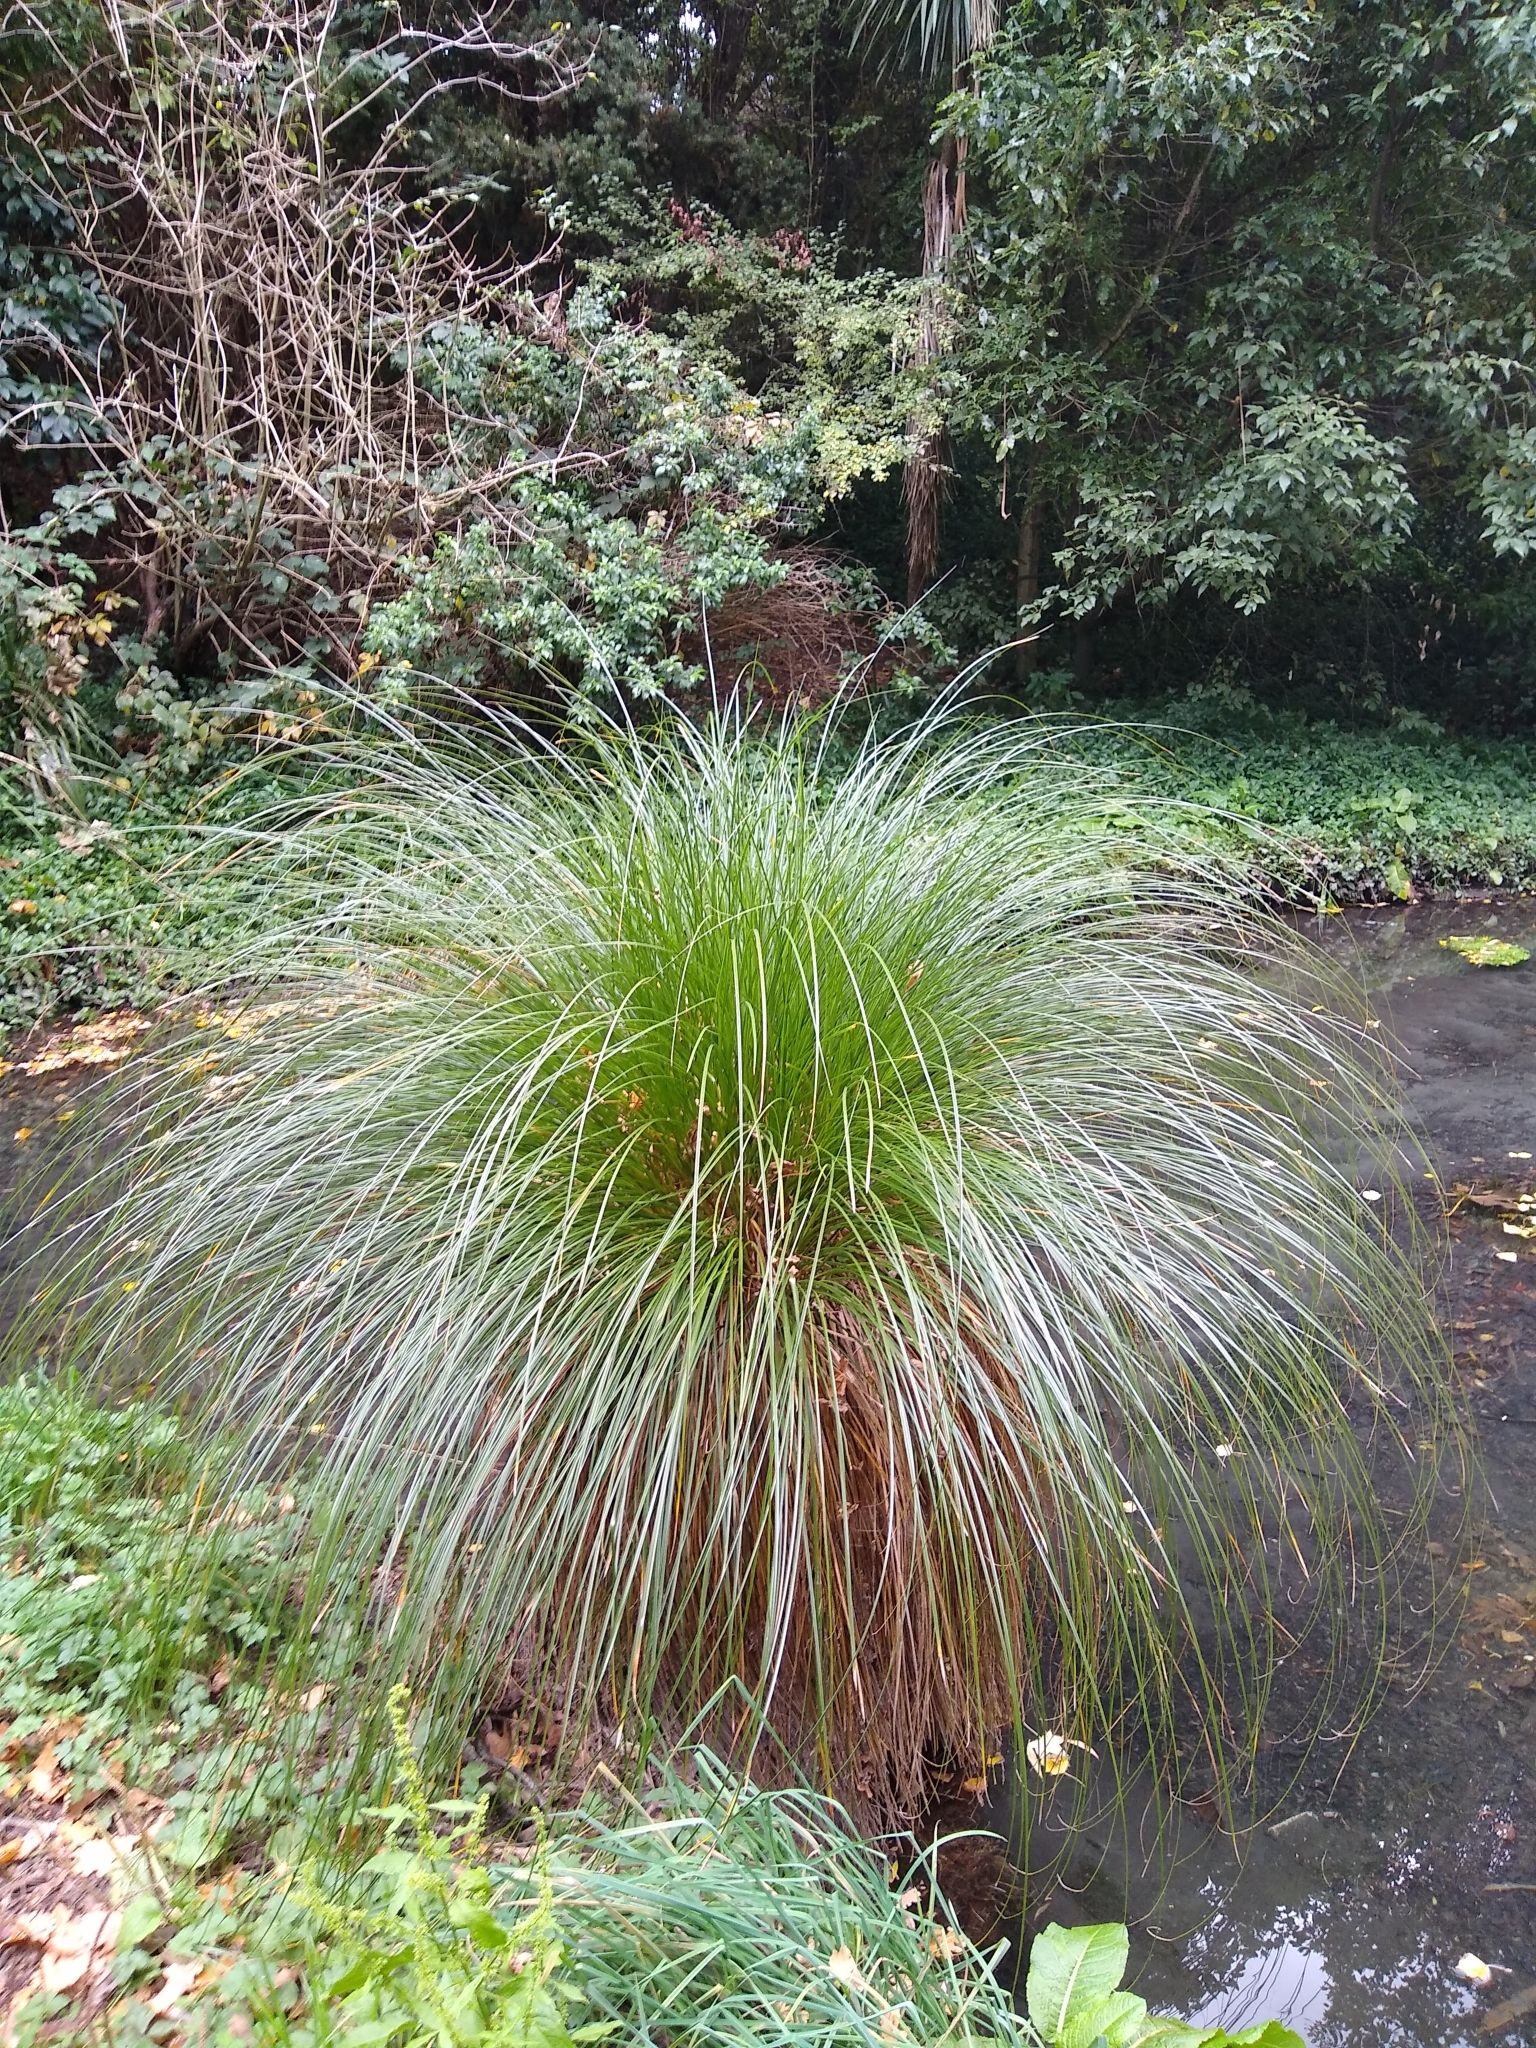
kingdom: Plantae
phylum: Tracheophyta
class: Liliopsida
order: Poales
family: Cyperaceae
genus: Carex
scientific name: Carex secta
